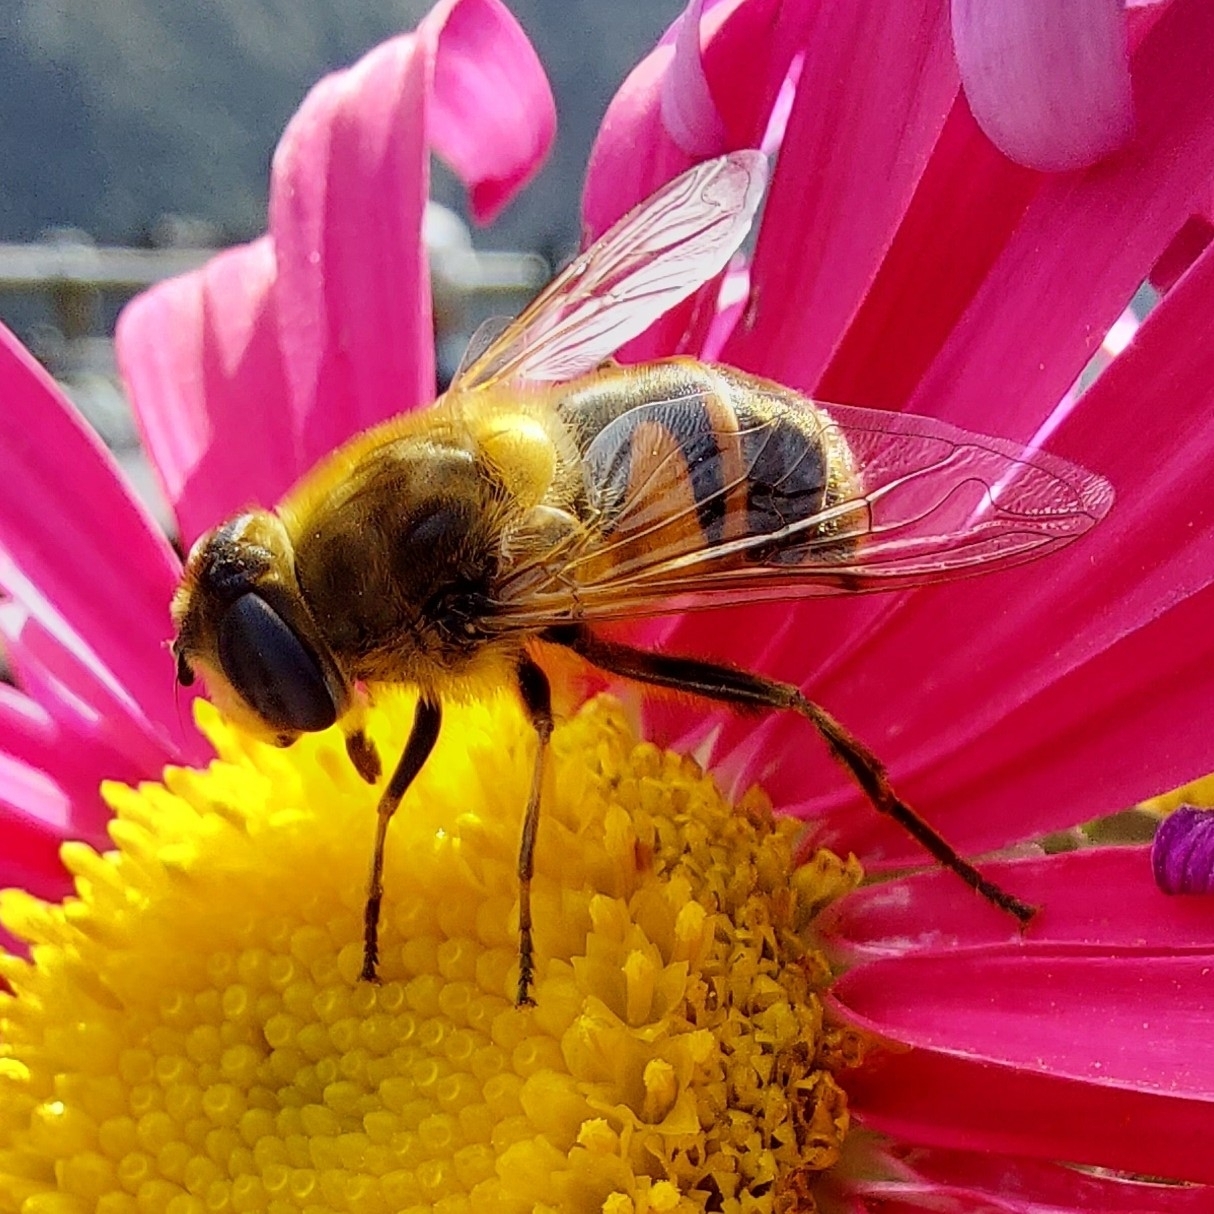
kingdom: Animalia
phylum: Arthropoda
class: Insecta
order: Diptera
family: Syrphidae
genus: Eristalis
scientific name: Eristalis tenax
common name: Drone fly
